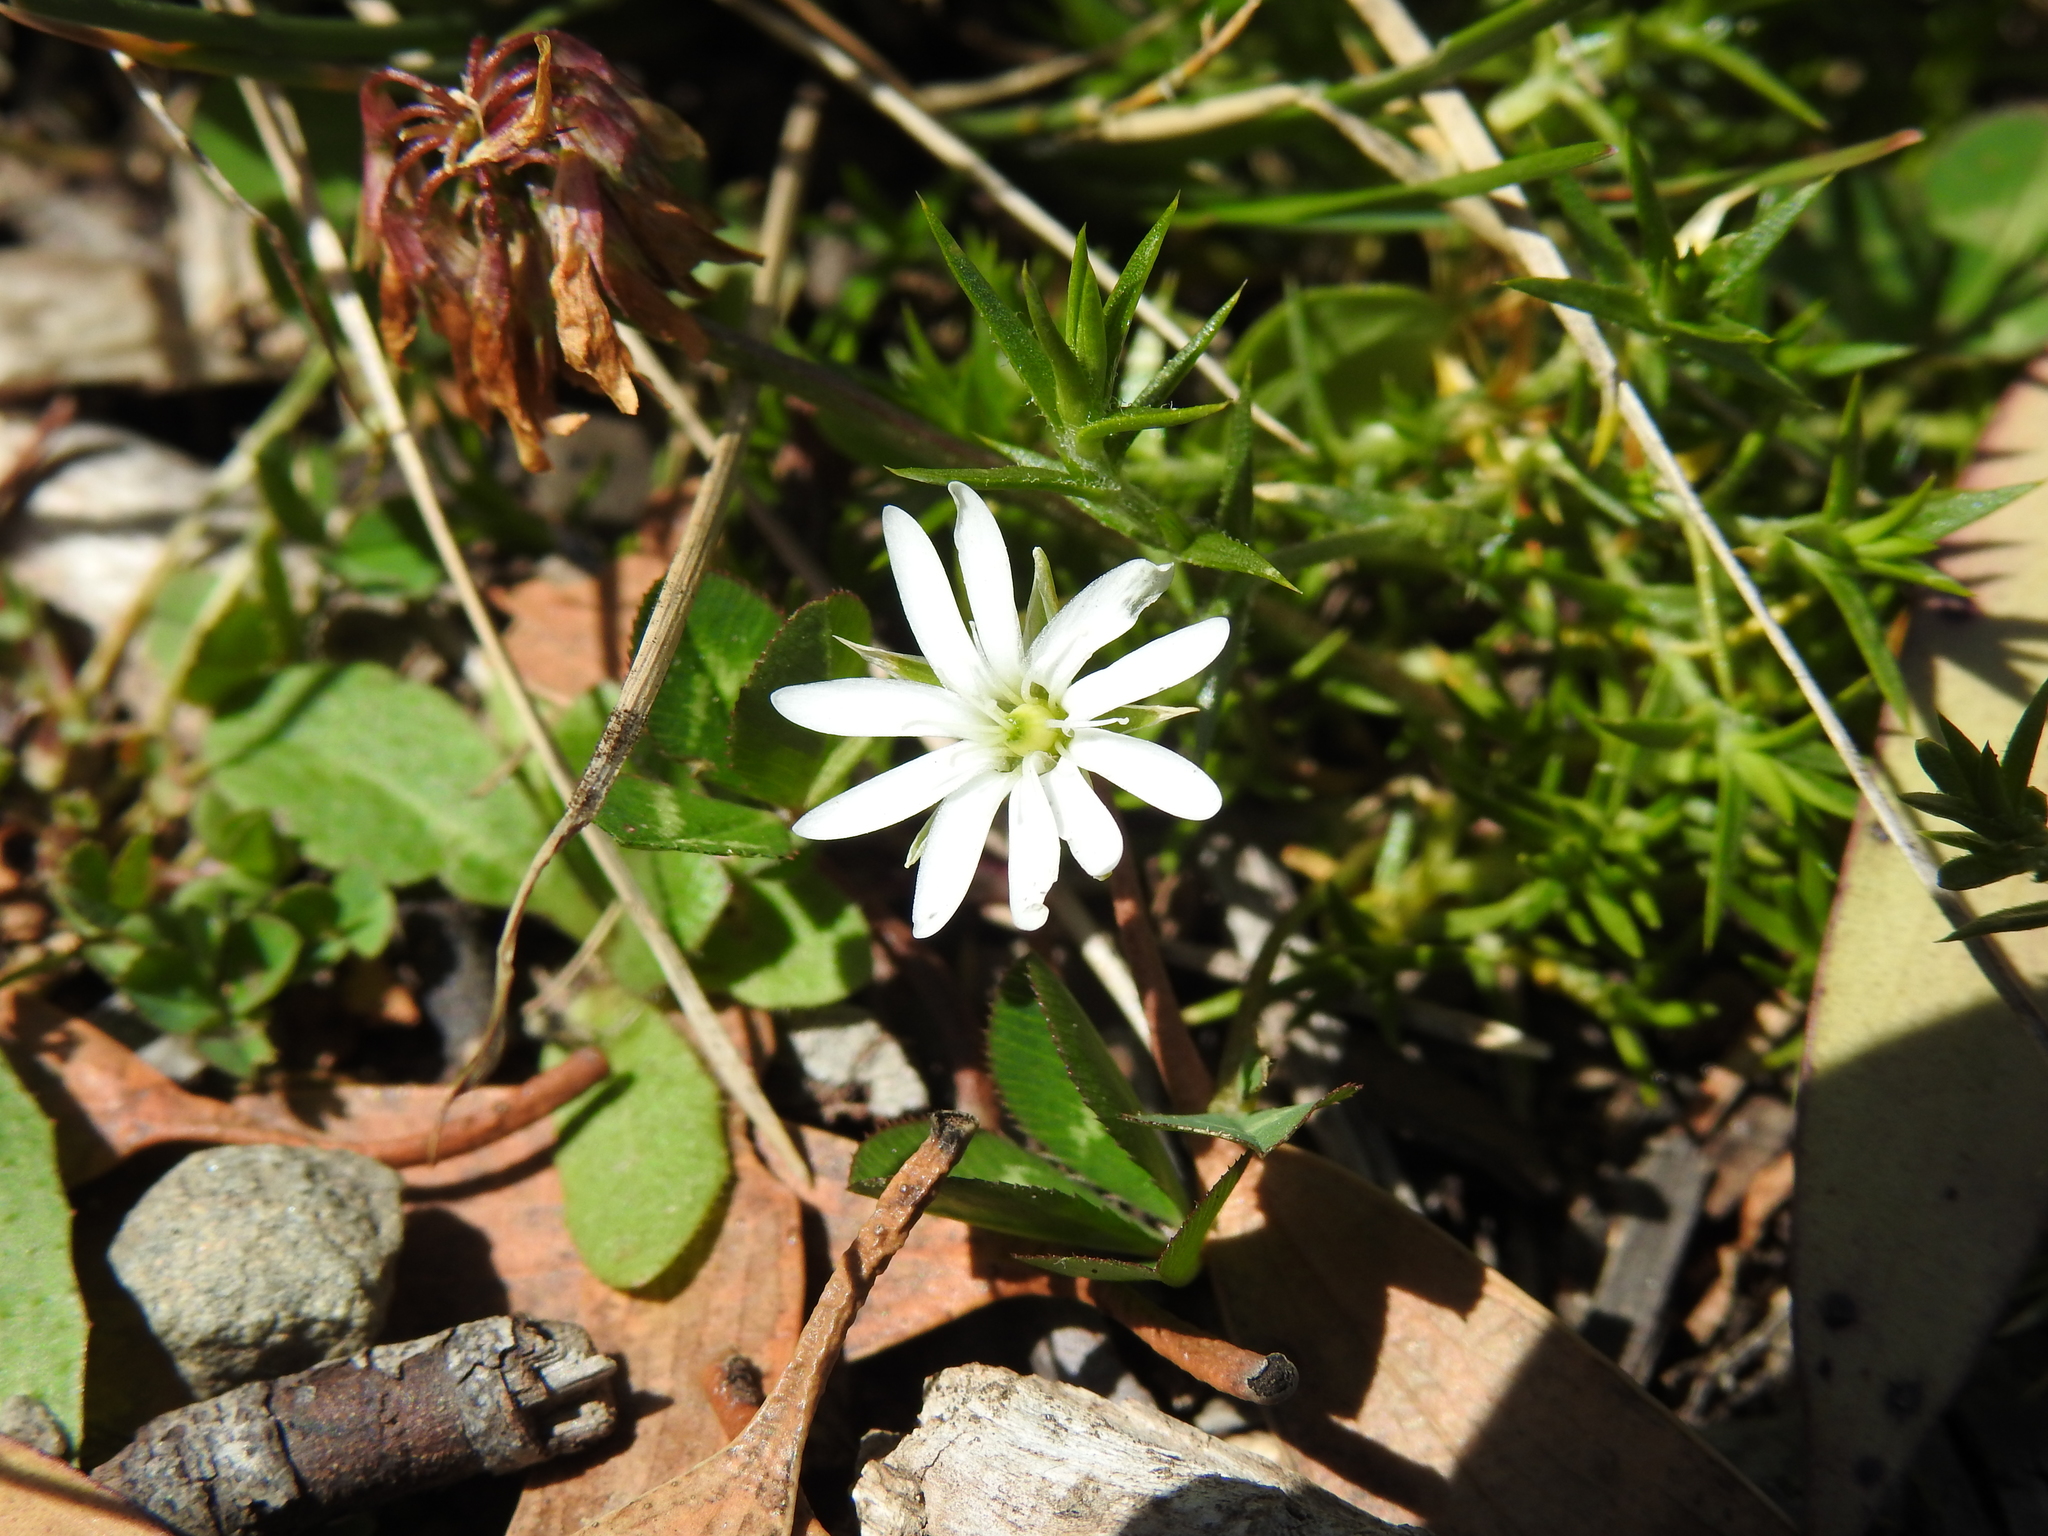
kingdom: Plantae
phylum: Tracheophyta
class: Magnoliopsida
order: Caryophyllales
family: Caryophyllaceae
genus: Stellaria
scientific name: Stellaria pungens
